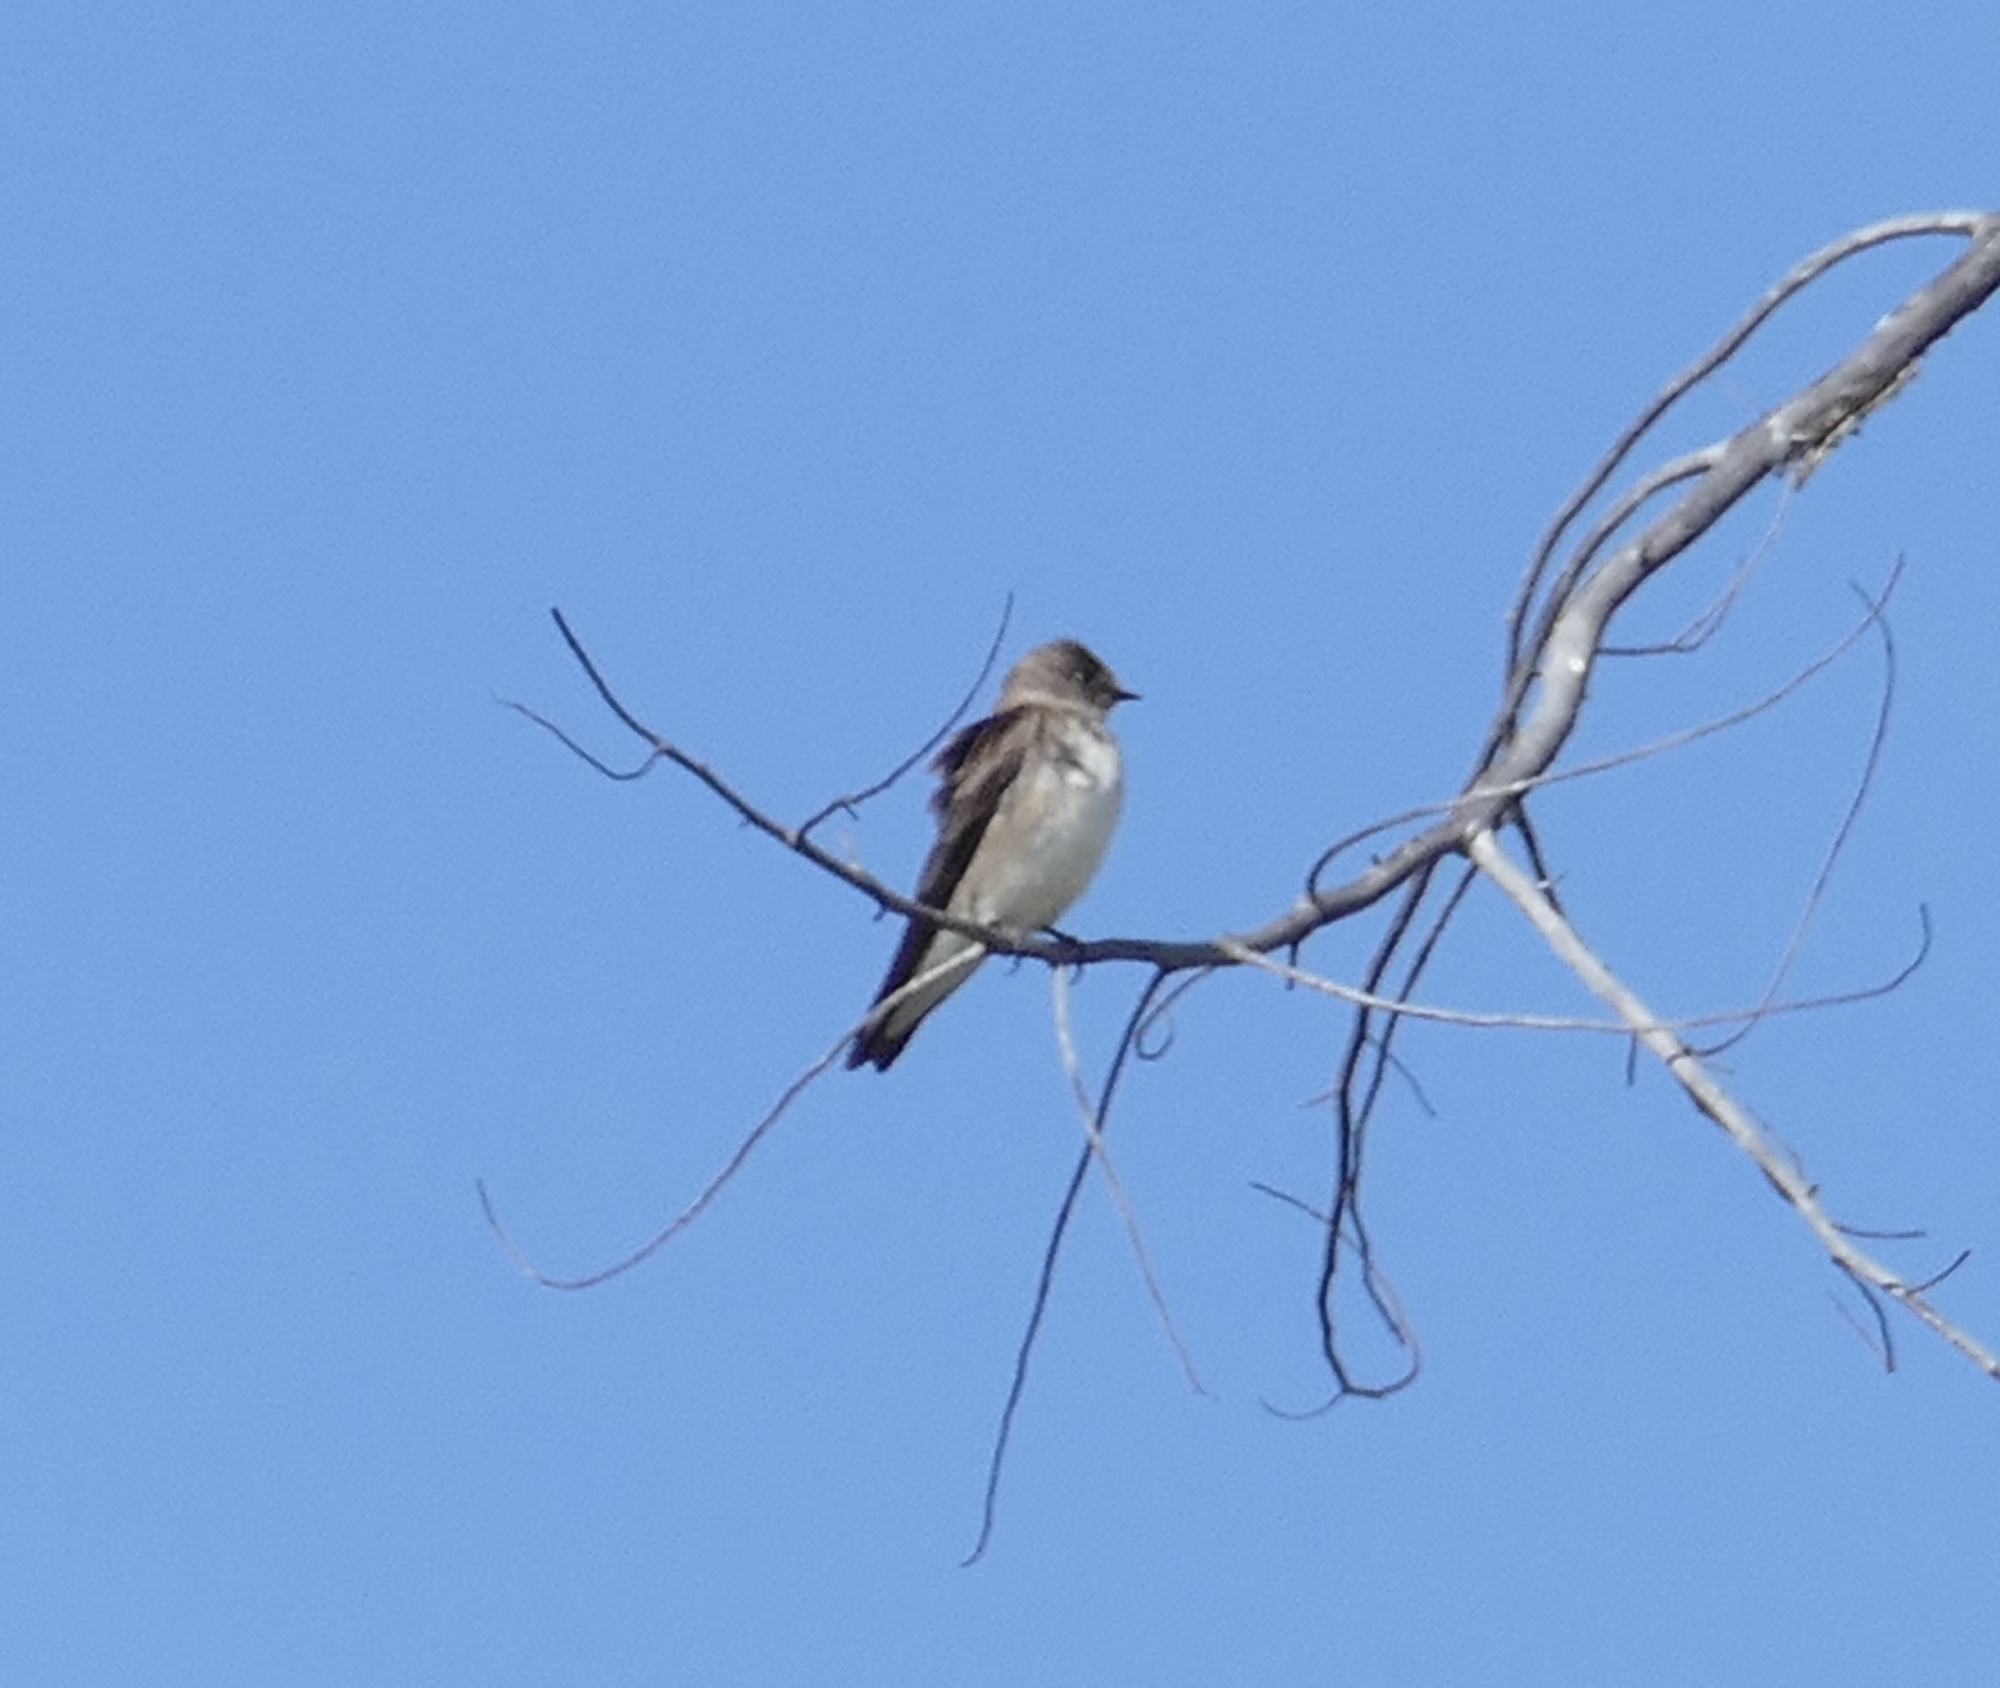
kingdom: Animalia
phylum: Chordata
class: Aves
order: Passeriformes
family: Hirundinidae
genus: Stelgidopteryx
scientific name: Stelgidopteryx serripennis
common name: Northern rough-winged swallow
